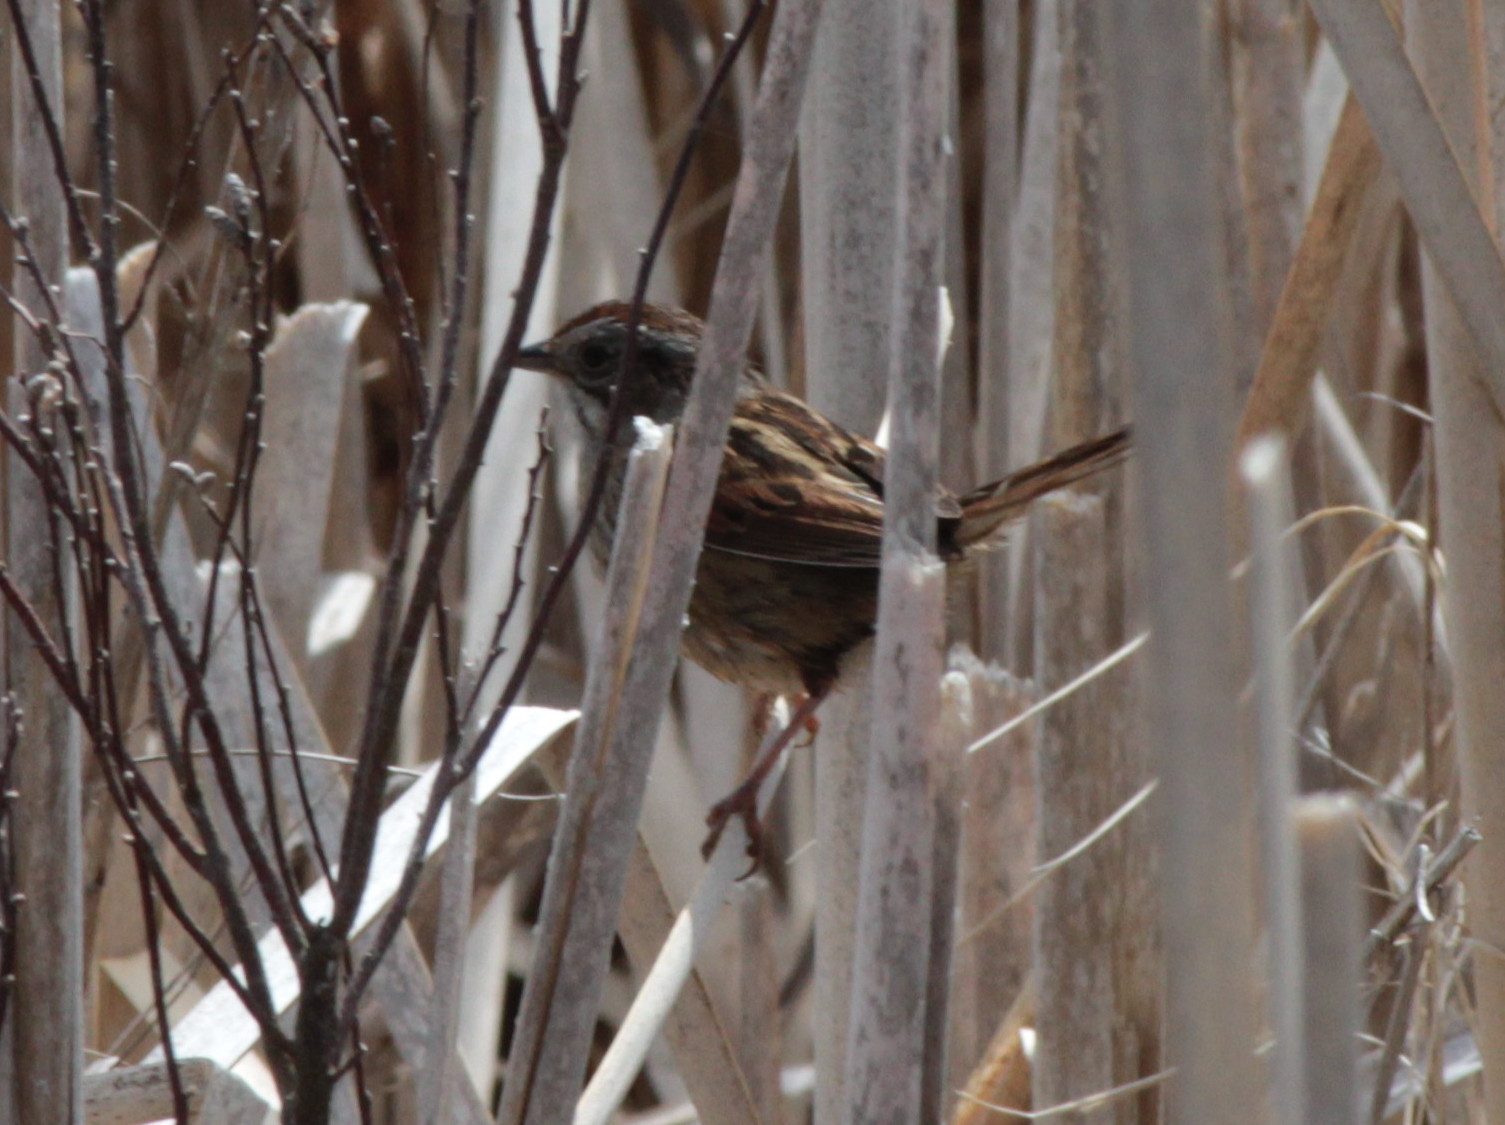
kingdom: Animalia
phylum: Chordata
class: Aves
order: Passeriformes
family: Passerellidae
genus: Melospiza
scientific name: Melospiza georgiana
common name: Swamp sparrow
